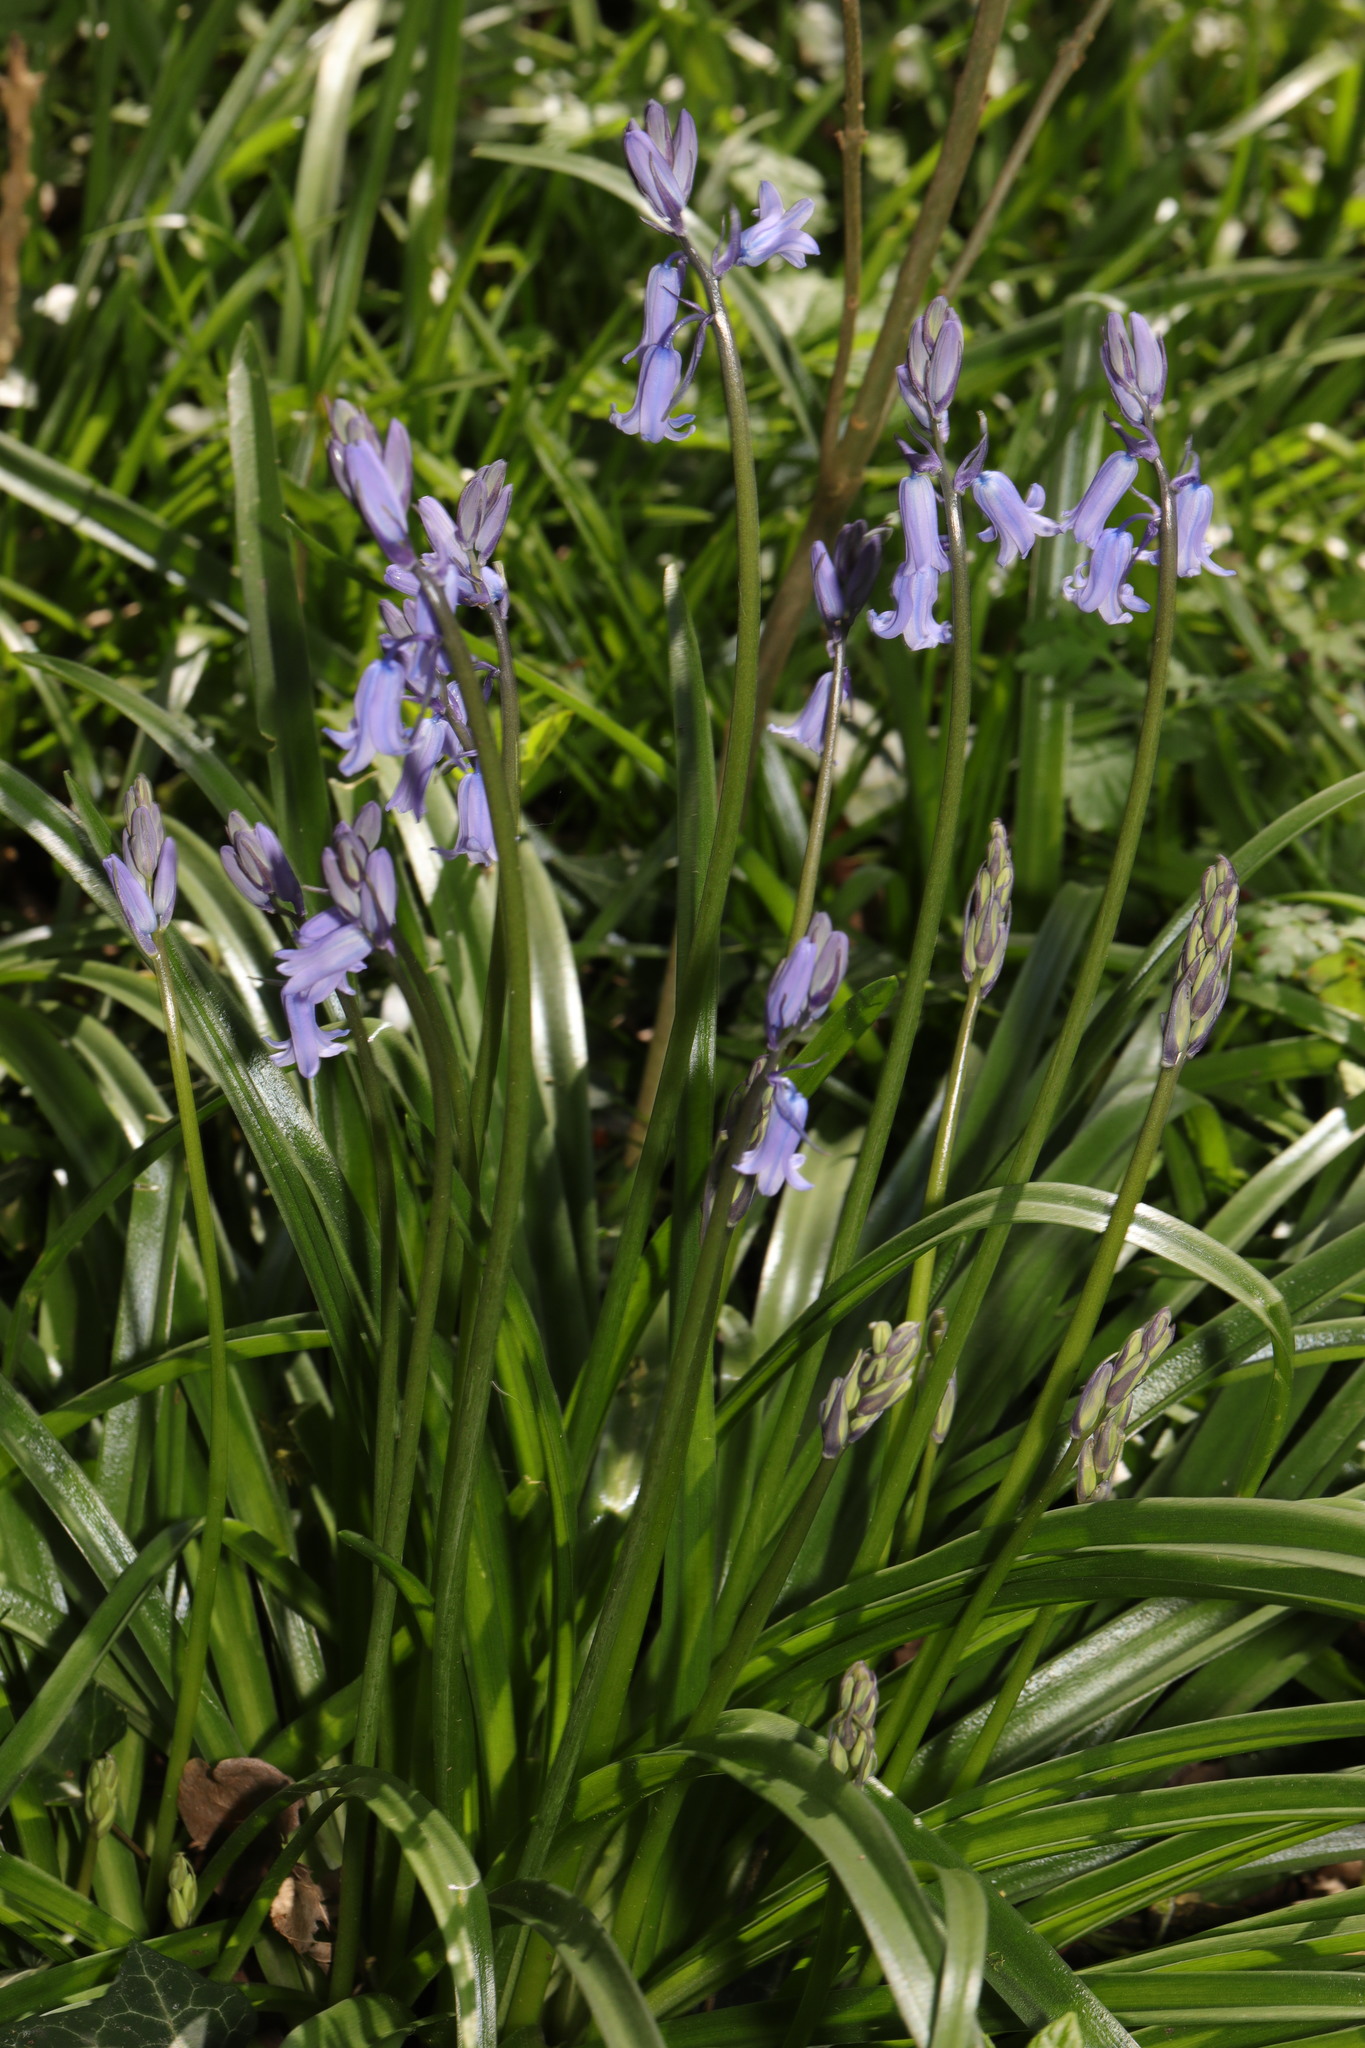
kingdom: Plantae
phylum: Tracheophyta
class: Liliopsida
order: Asparagales
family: Asparagaceae
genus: Hyacinthoides
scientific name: Hyacinthoides massartiana
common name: Hyacinthoides
